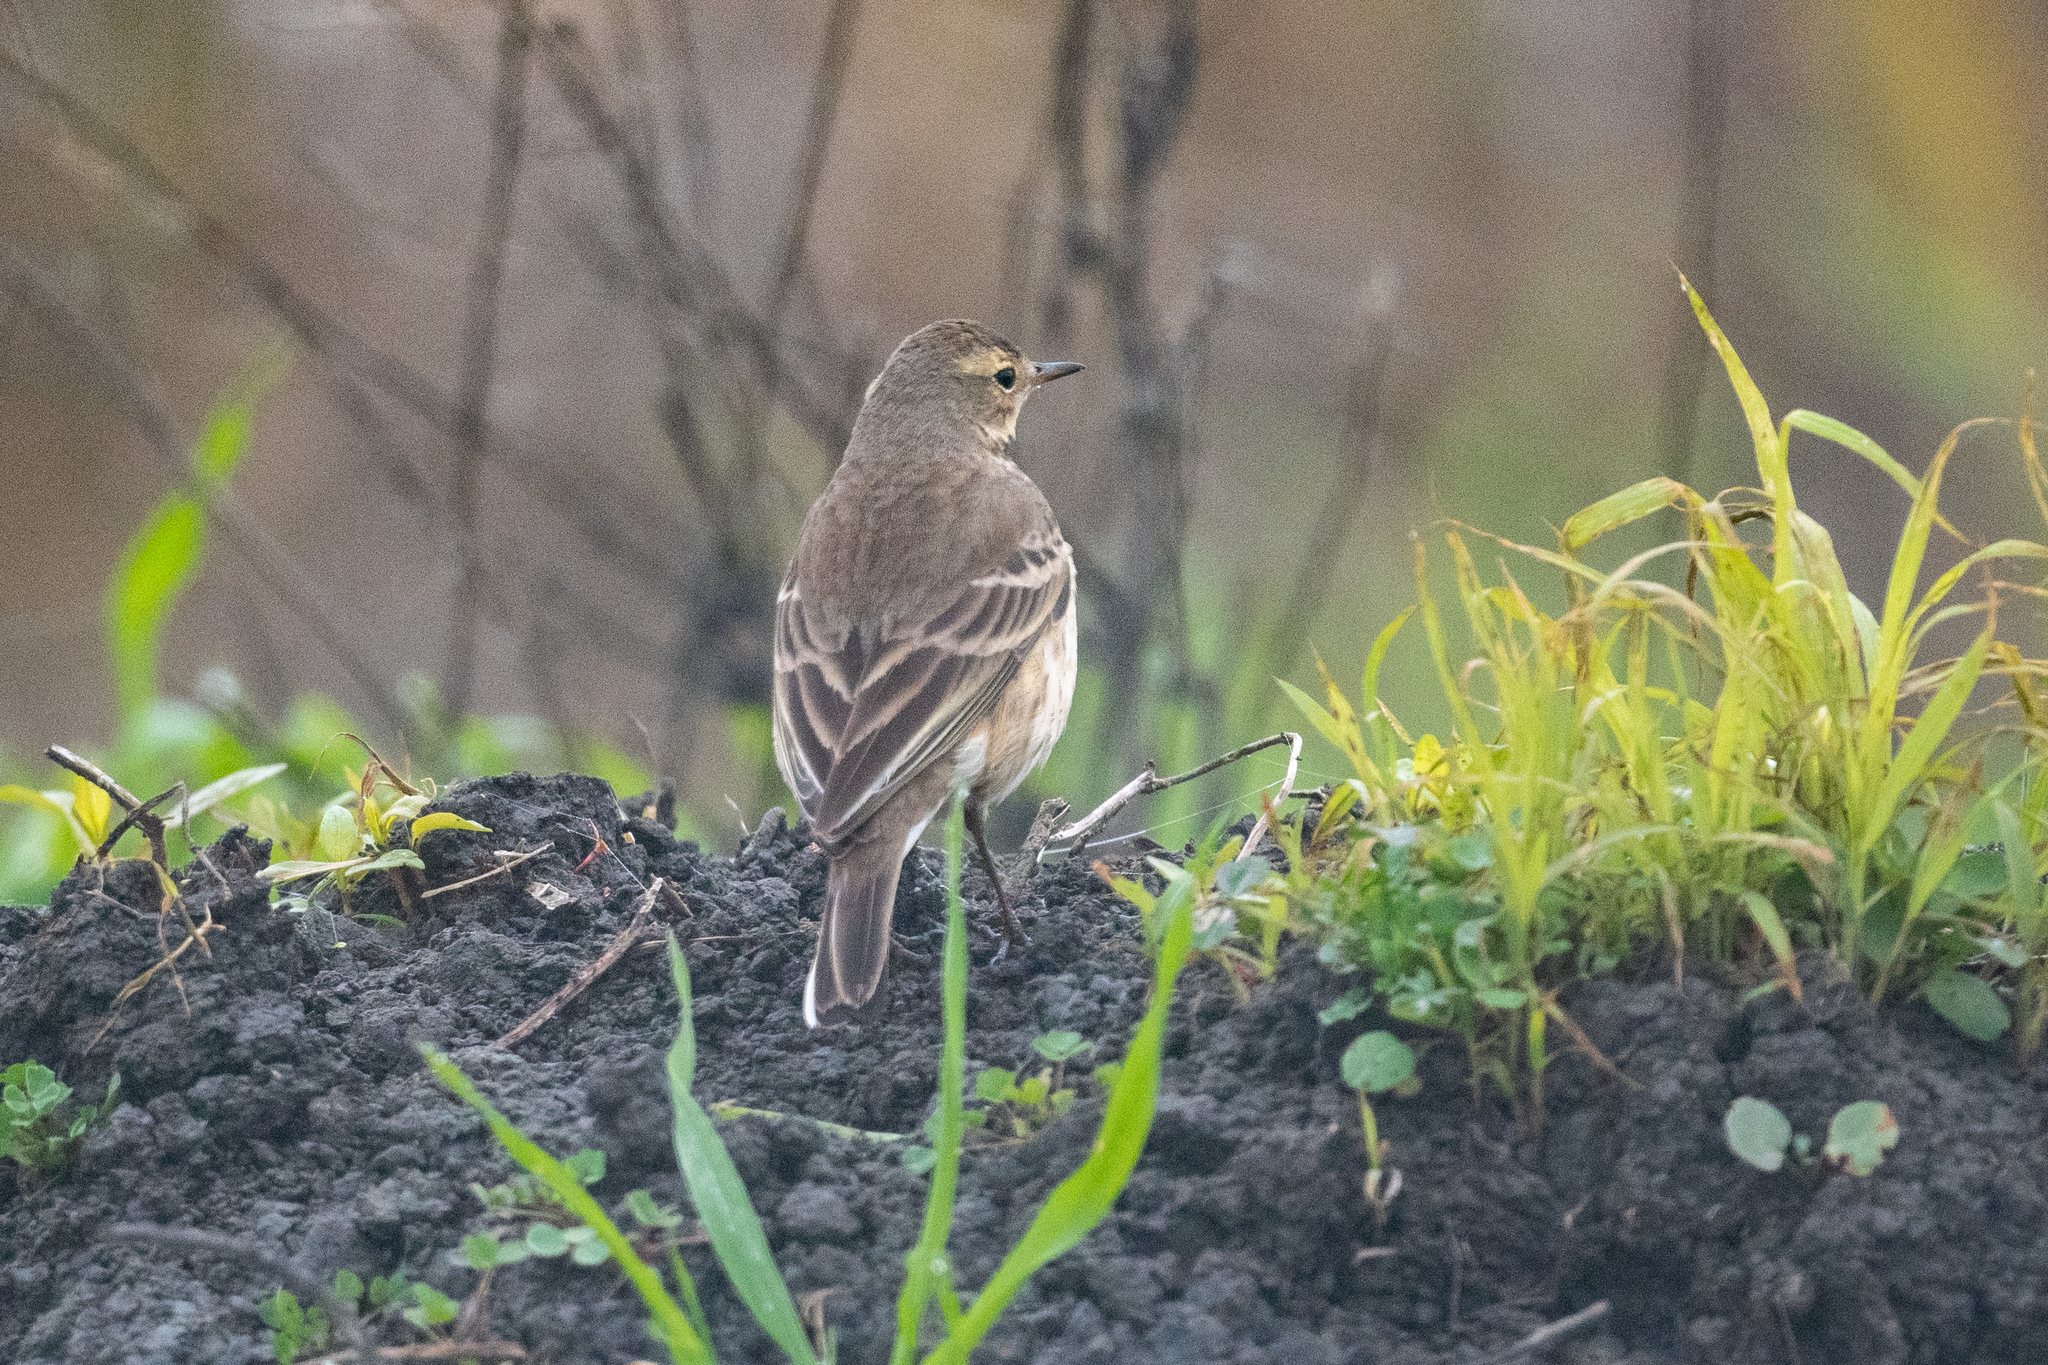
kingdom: Animalia
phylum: Chordata
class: Aves
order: Passeriformes
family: Motacillidae
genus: Anthus
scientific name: Anthus rubescens
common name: Buff-bellied pipit
